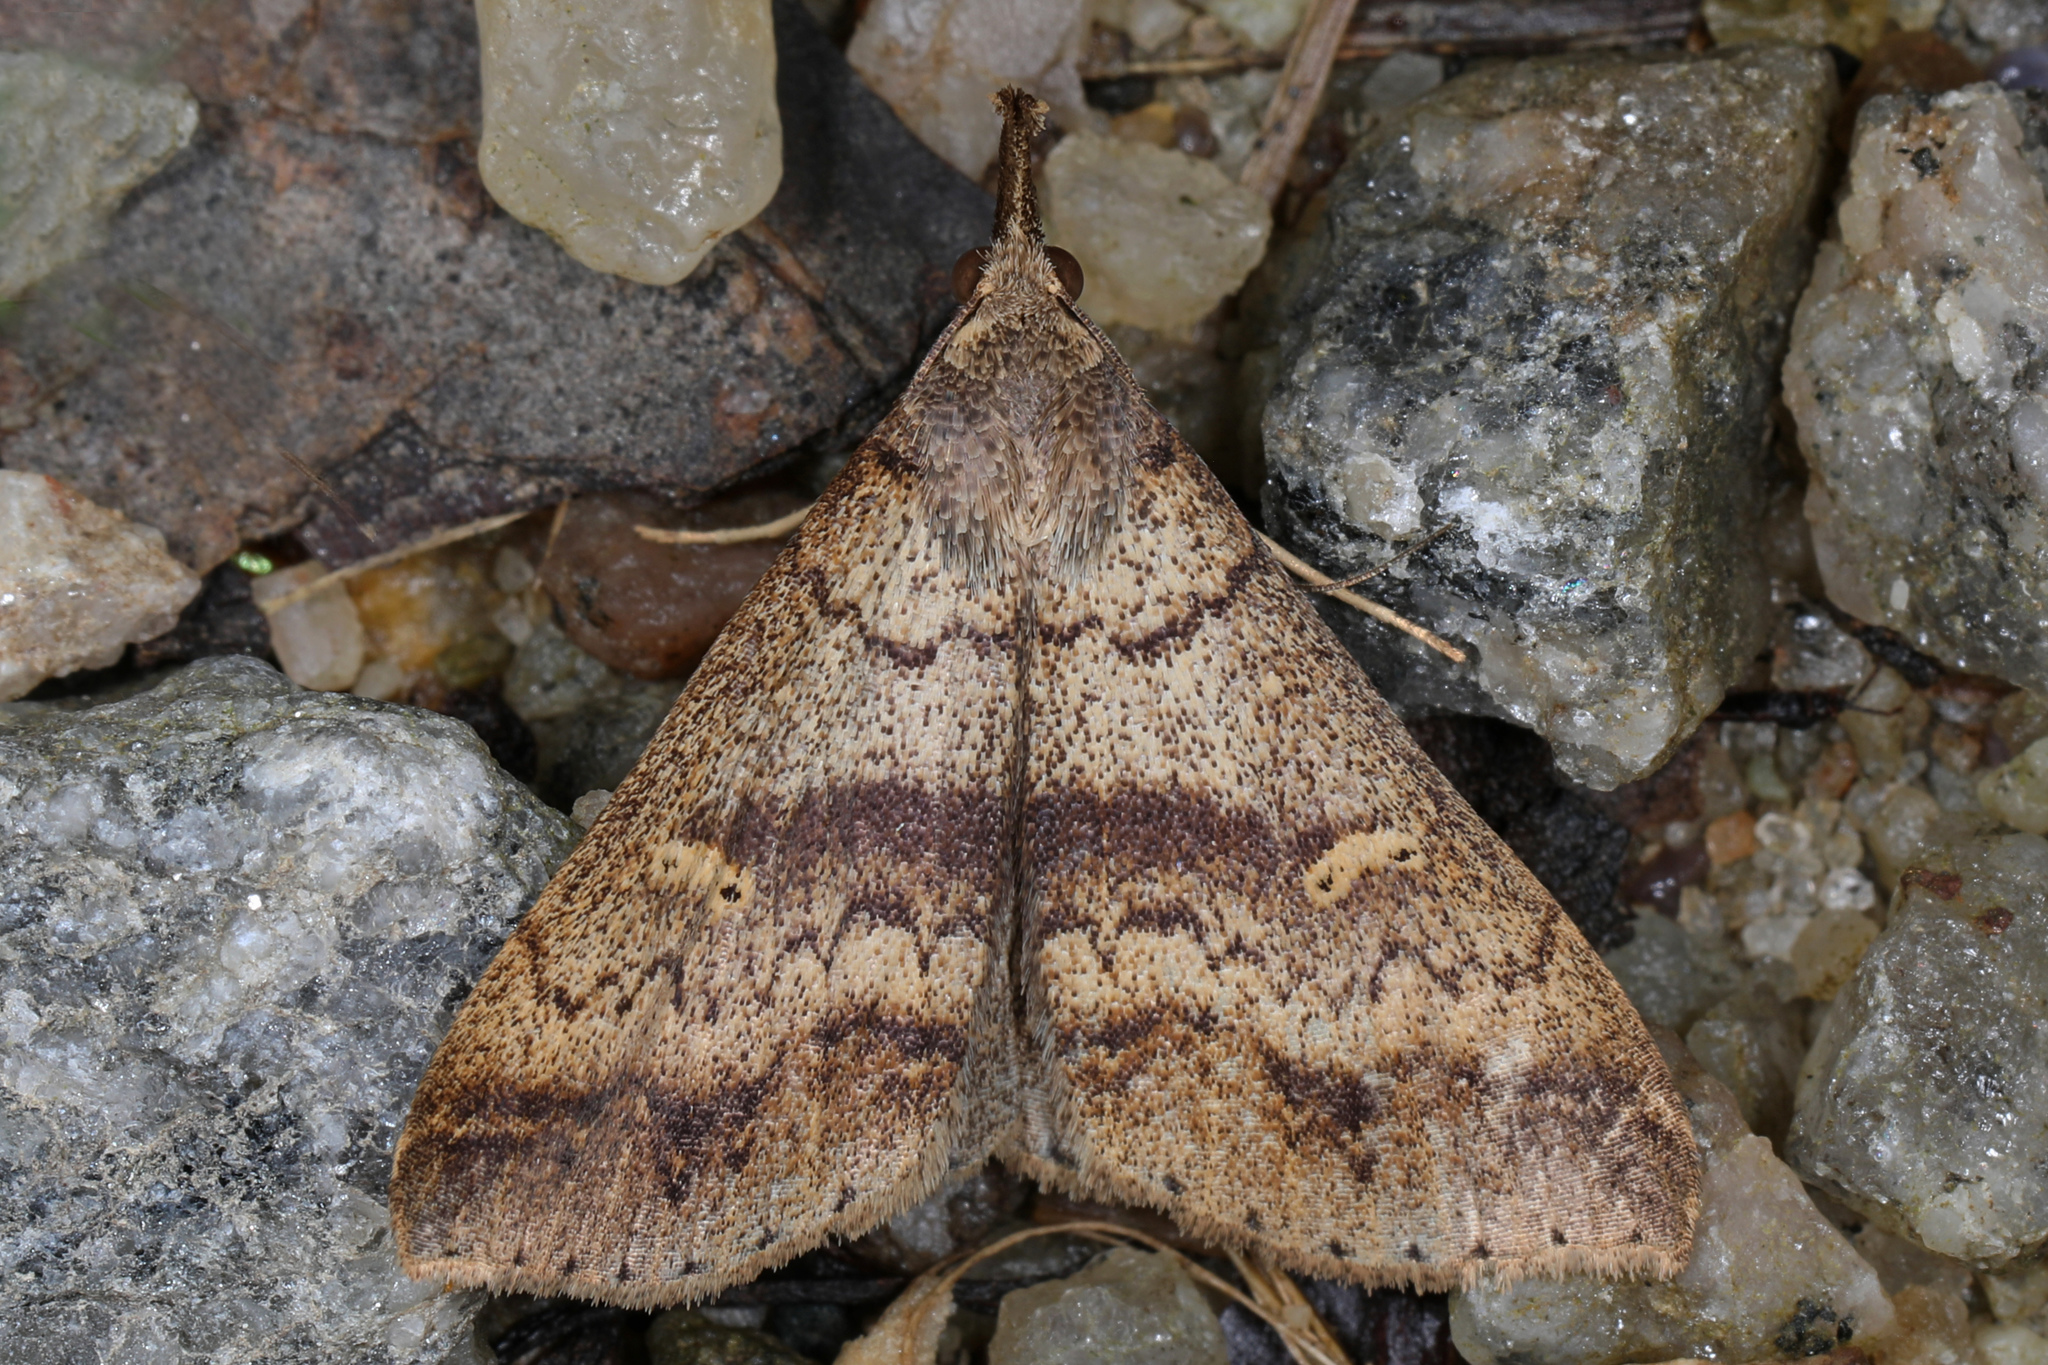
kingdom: Animalia
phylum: Arthropoda
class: Insecta
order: Lepidoptera
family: Erebidae
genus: Renia
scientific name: Renia discoloralis
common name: Discolored renia moth
